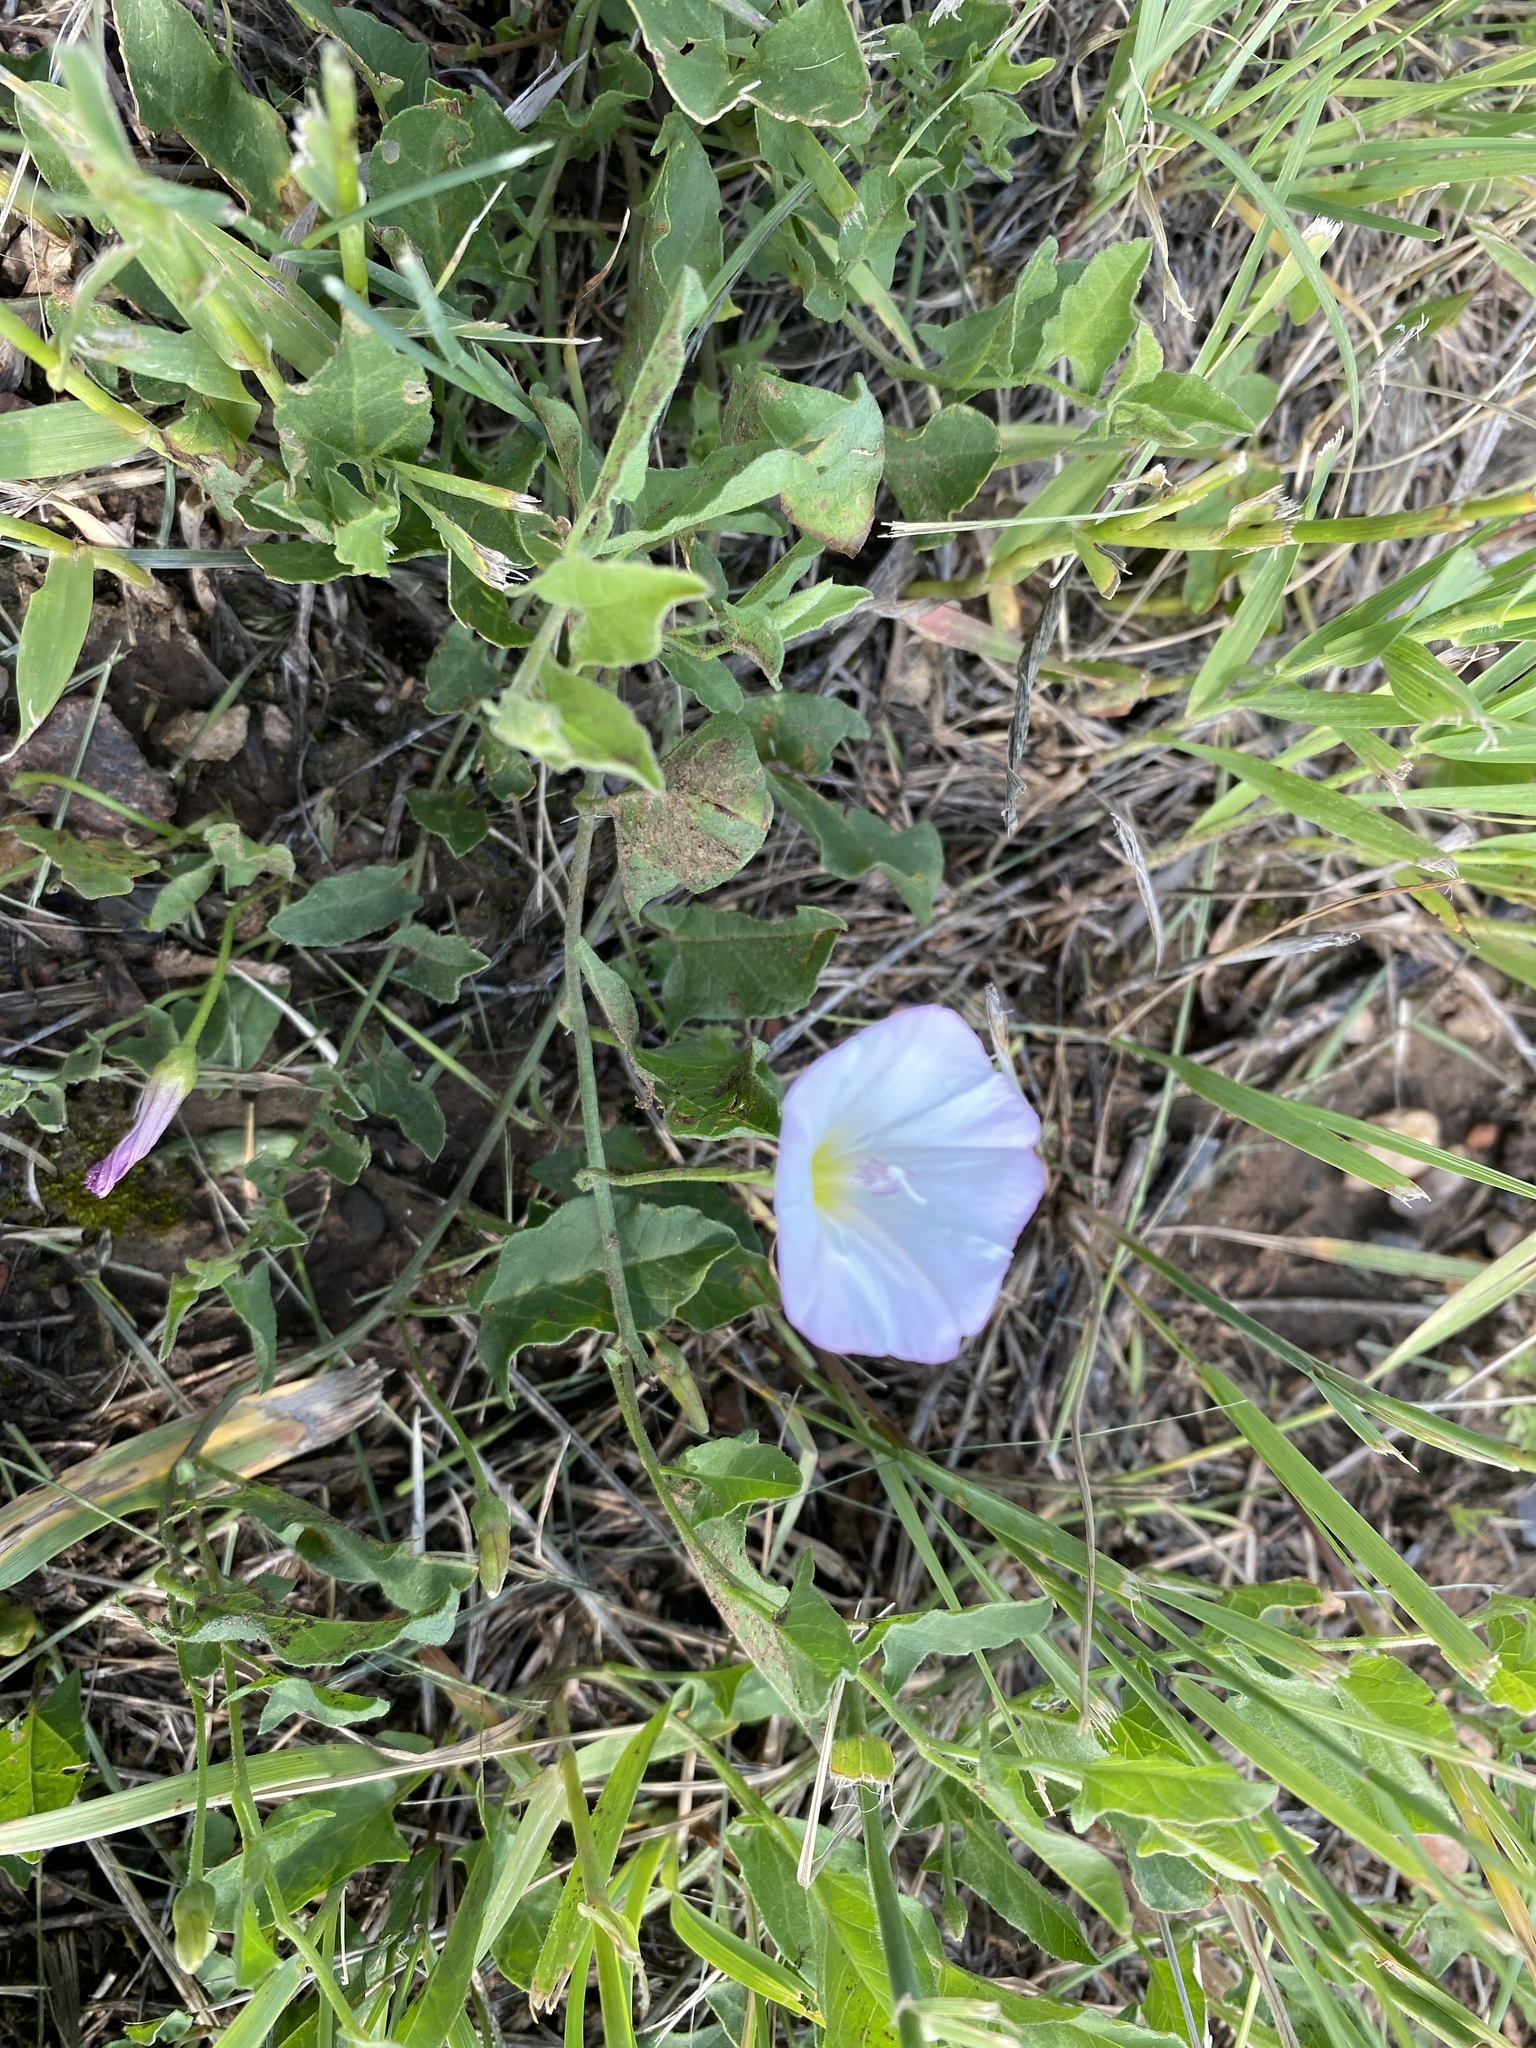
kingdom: Plantae
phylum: Tracheophyta
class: Magnoliopsida
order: Solanales
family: Convolvulaceae
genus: Convolvulus
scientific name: Convolvulus arvensis
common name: Field bindweed
